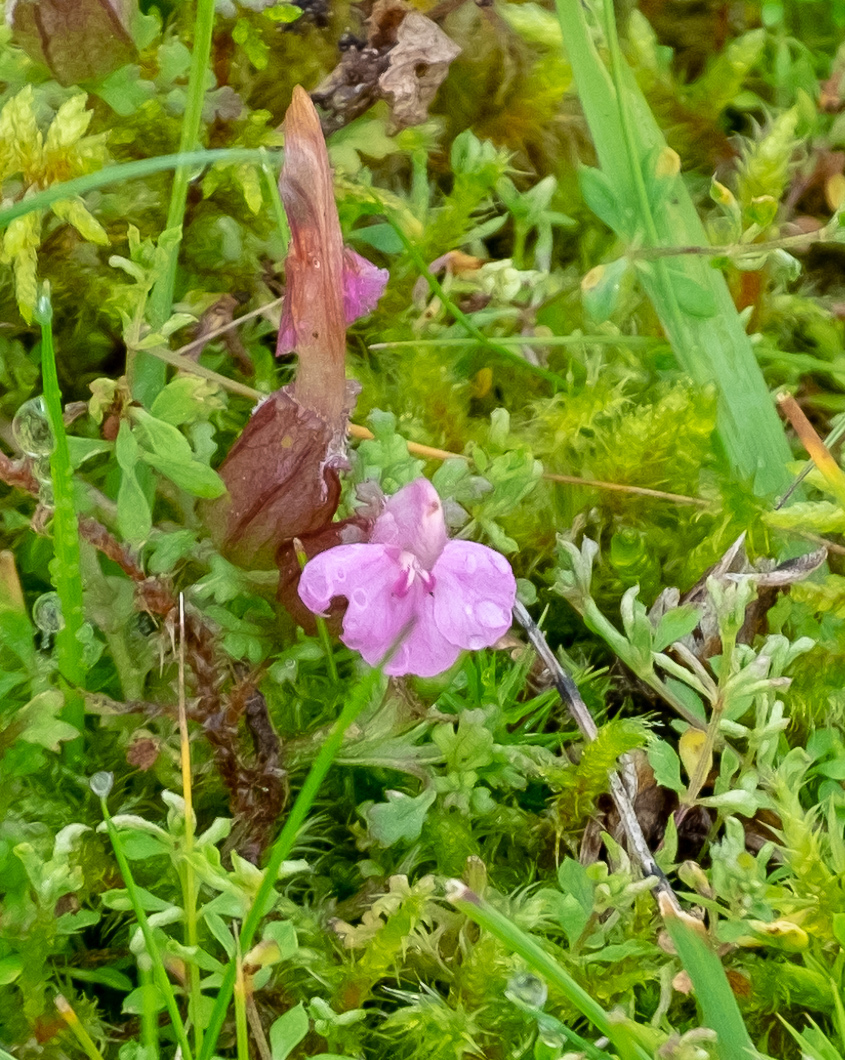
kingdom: Plantae
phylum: Tracheophyta
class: Magnoliopsida
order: Lamiales
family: Orobanchaceae
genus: Pedicularis
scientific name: Pedicularis sylvatica
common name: Lousewort
